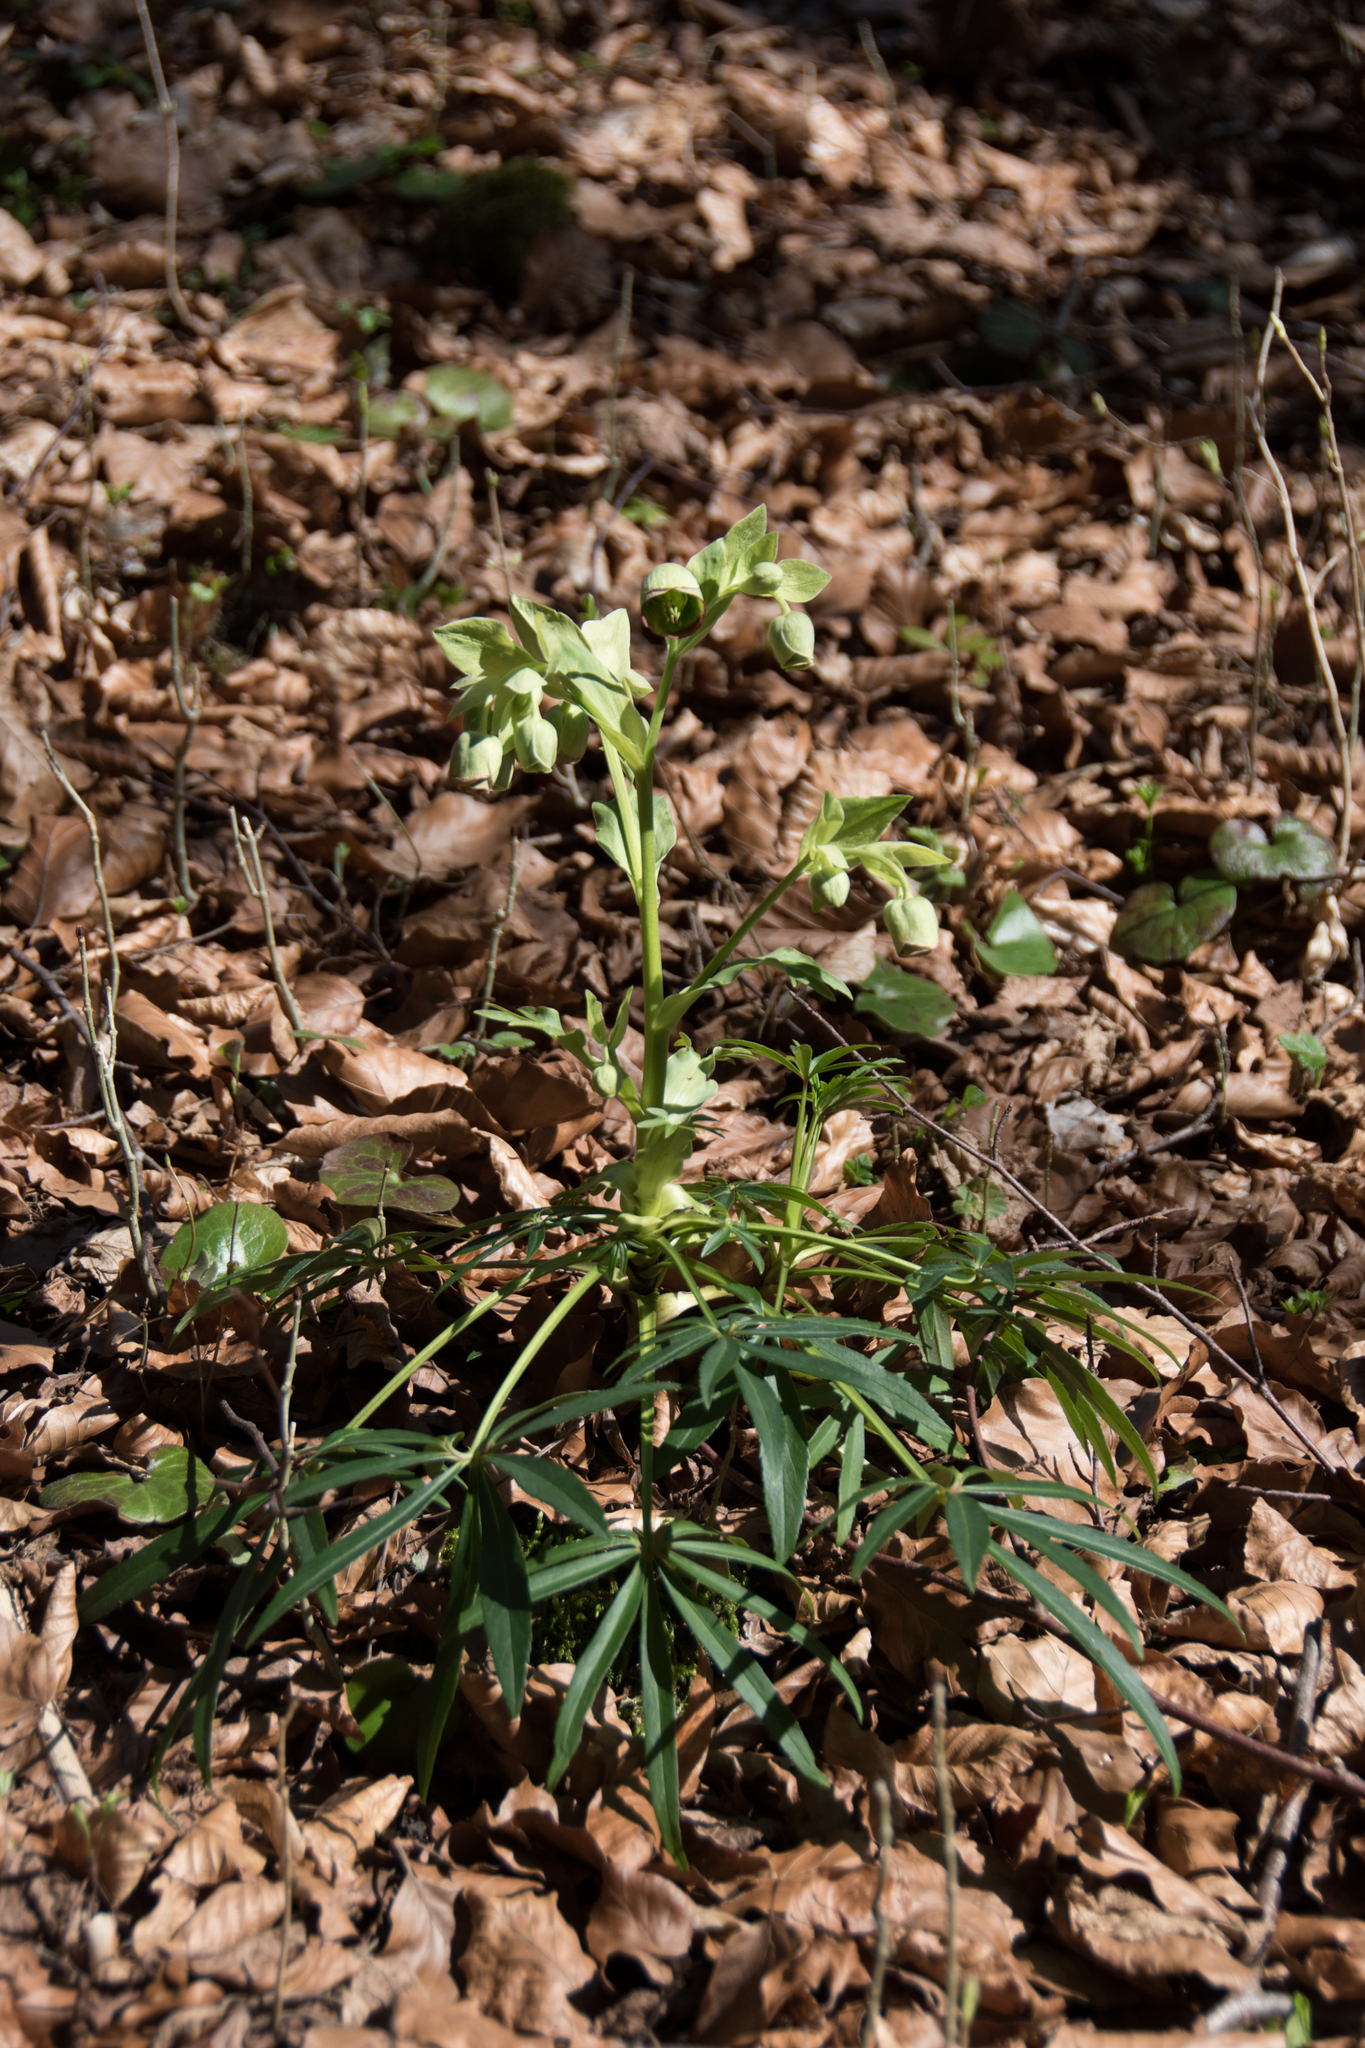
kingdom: Plantae
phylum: Tracheophyta
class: Magnoliopsida
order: Ranunculales
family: Ranunculaceae
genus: Helleborus
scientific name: Helleborus foetidus
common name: Stinking hellebore
